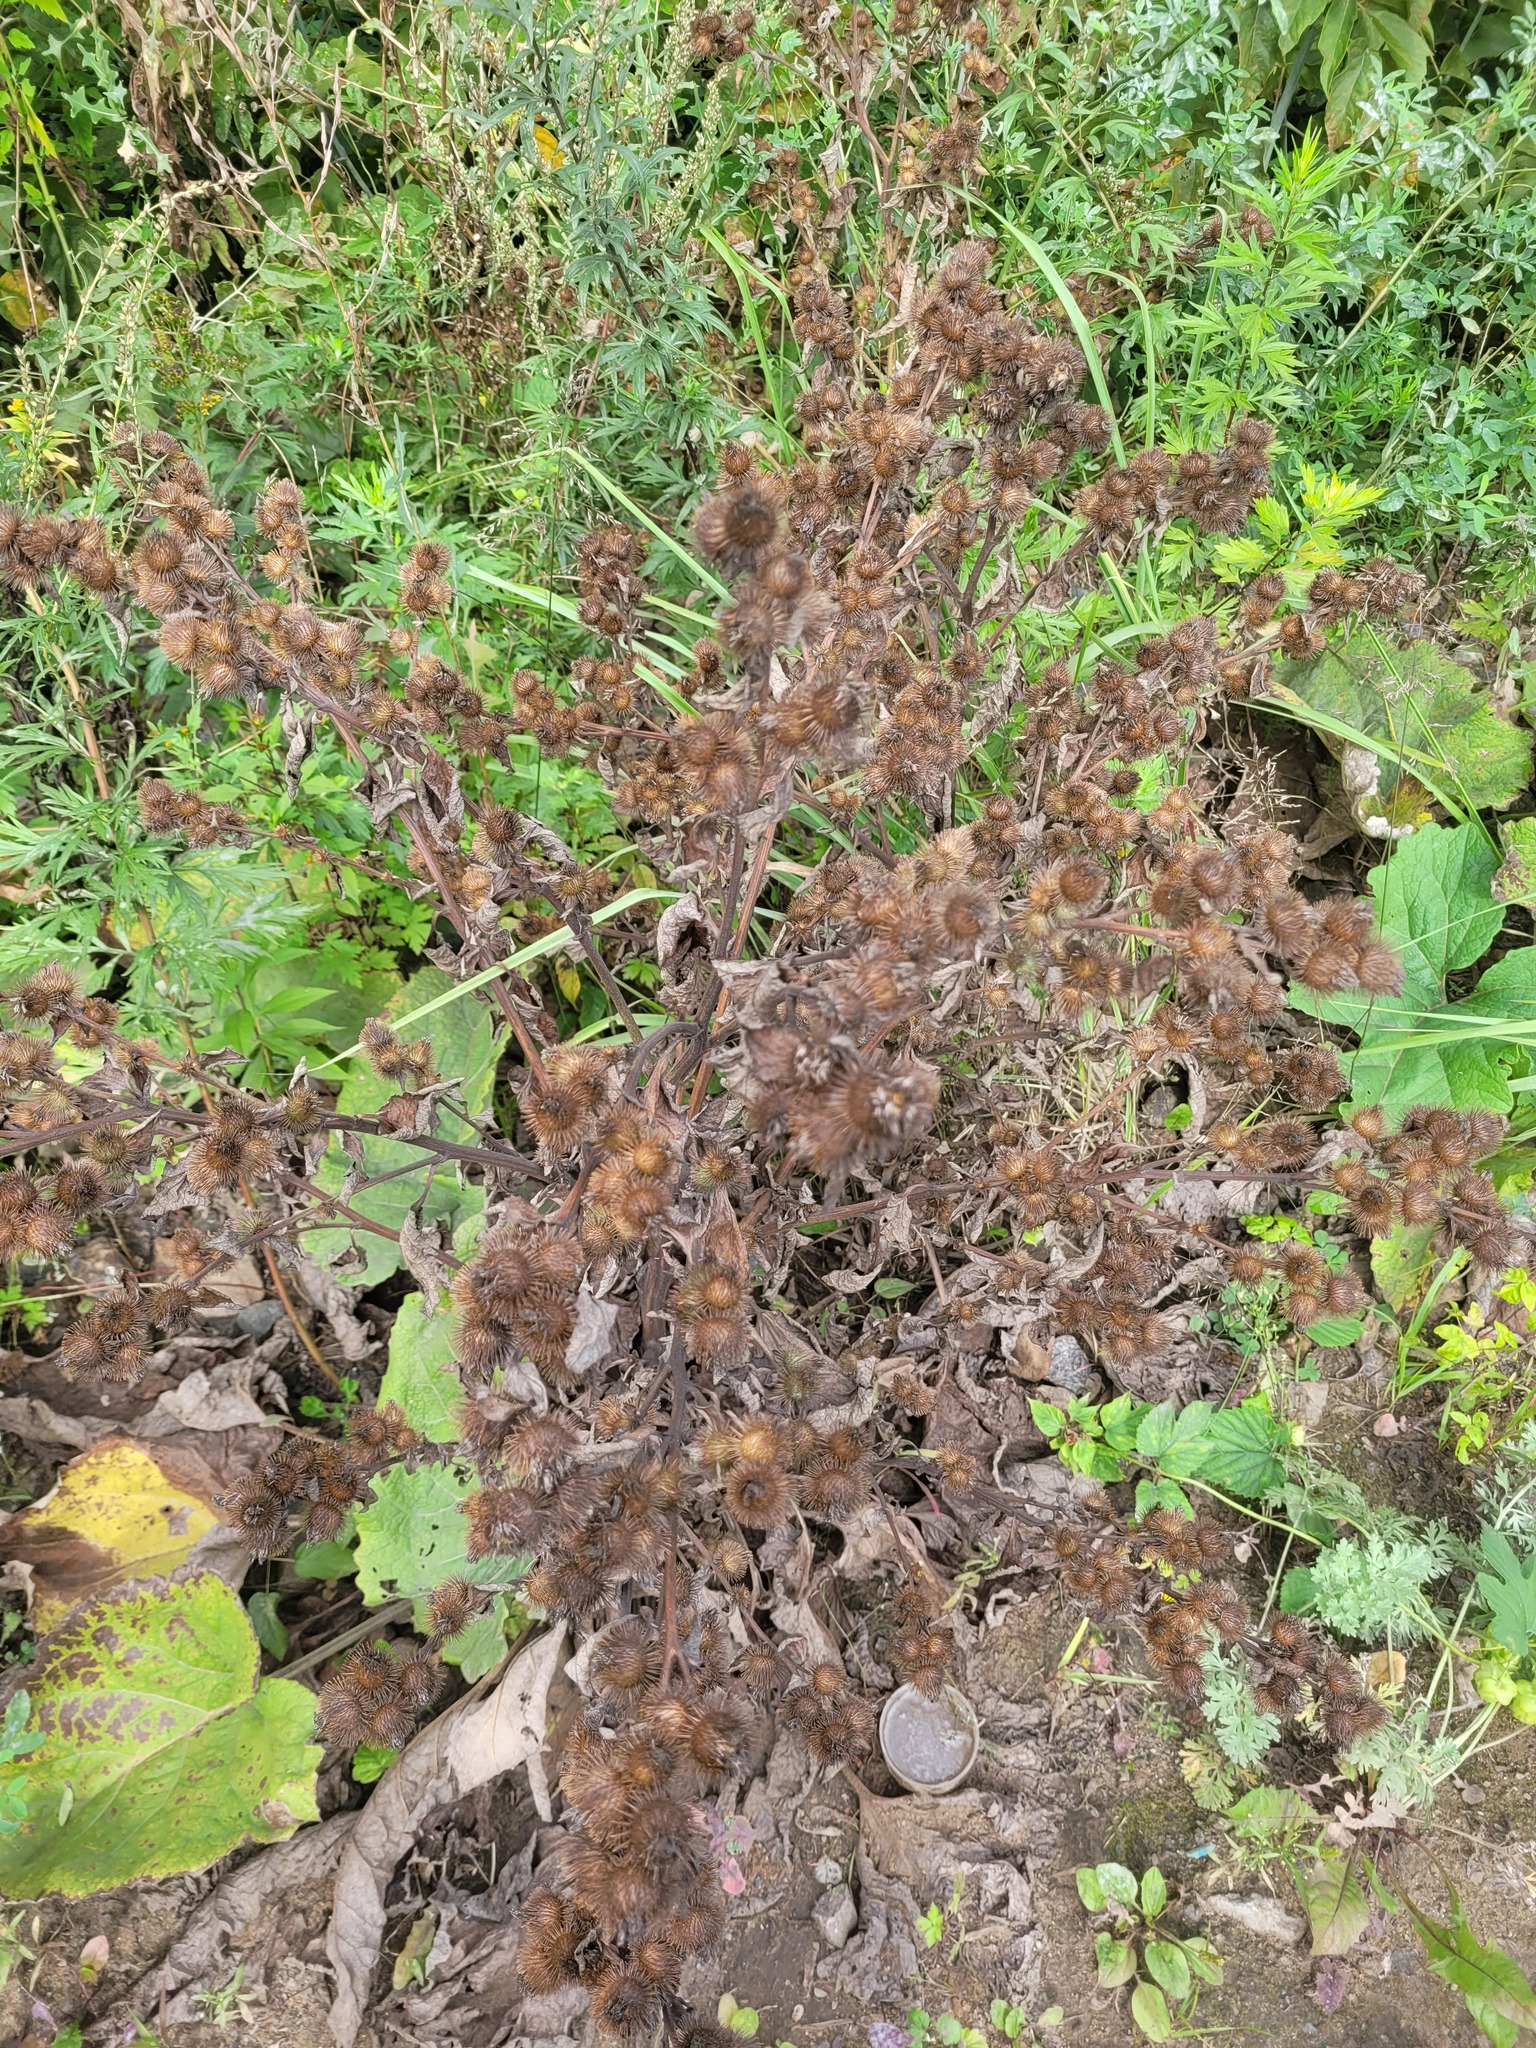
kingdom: Plantae
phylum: Tracheophyta
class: Magnoliopsida
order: Asterales
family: Asteraceae
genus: Arctium
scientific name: Arctium minus
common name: Lesser burdock
